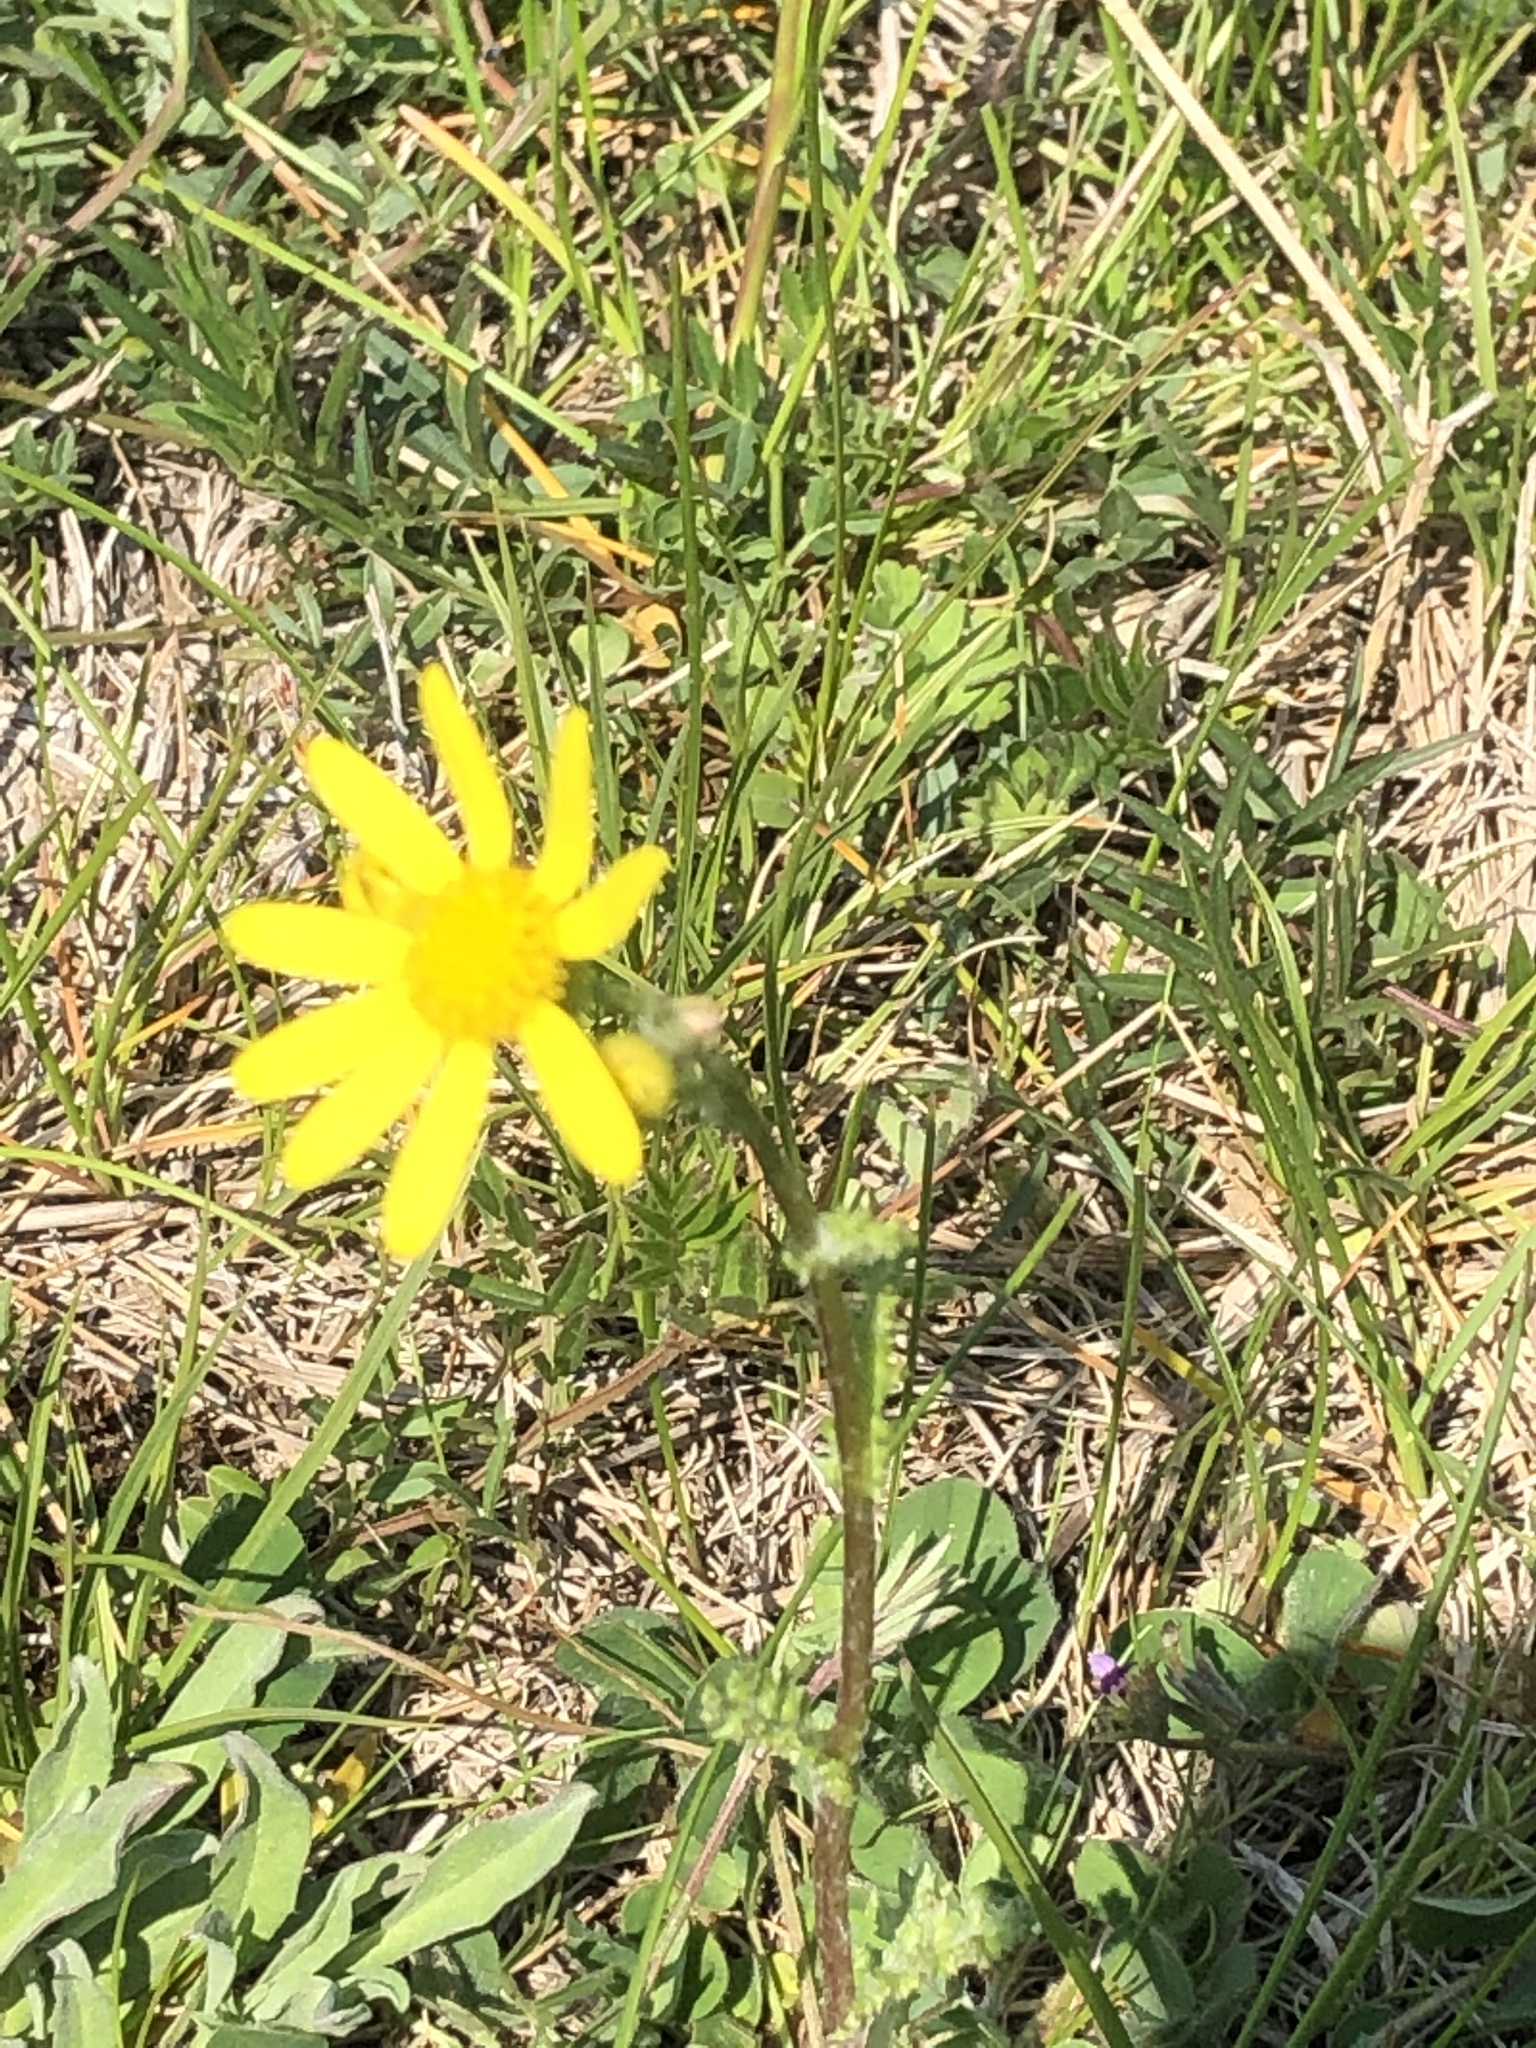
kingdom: Plantae
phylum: Tracheophyta
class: Magnoliopsida
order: Asterales
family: Asteraceae
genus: Senecio
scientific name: Senecio vernalis
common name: Eastern groundsel
